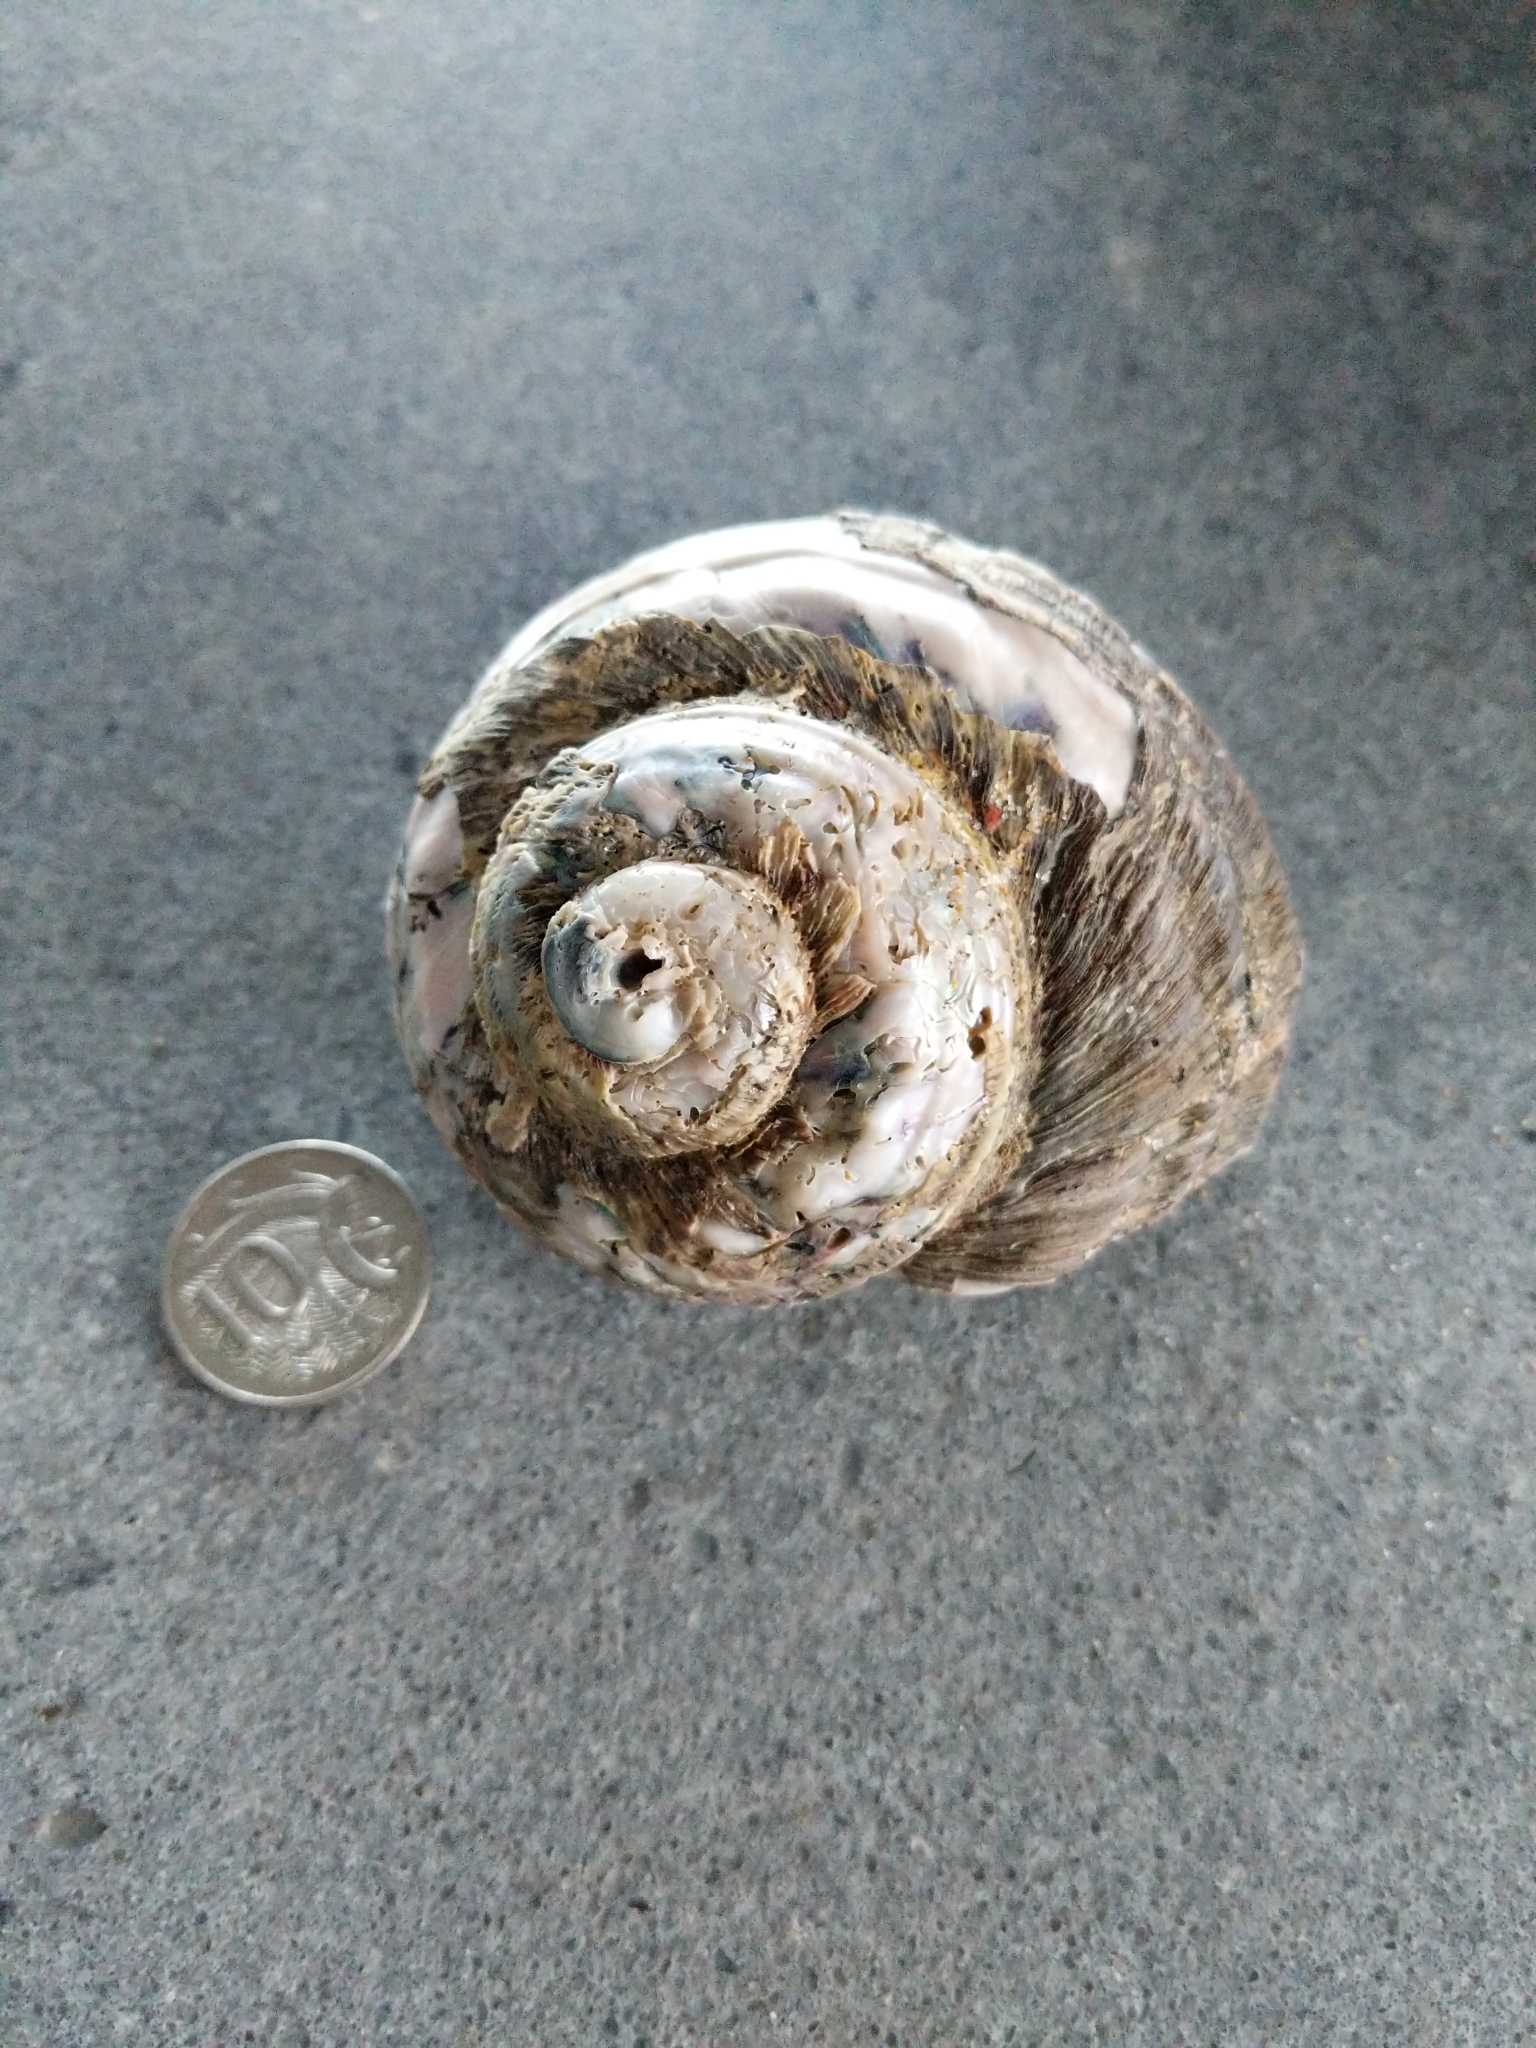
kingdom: Animalia
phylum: Mollusca
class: Gastropoda
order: Trochida
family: Turbinidae
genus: Lunella
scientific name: Lunella torquata
